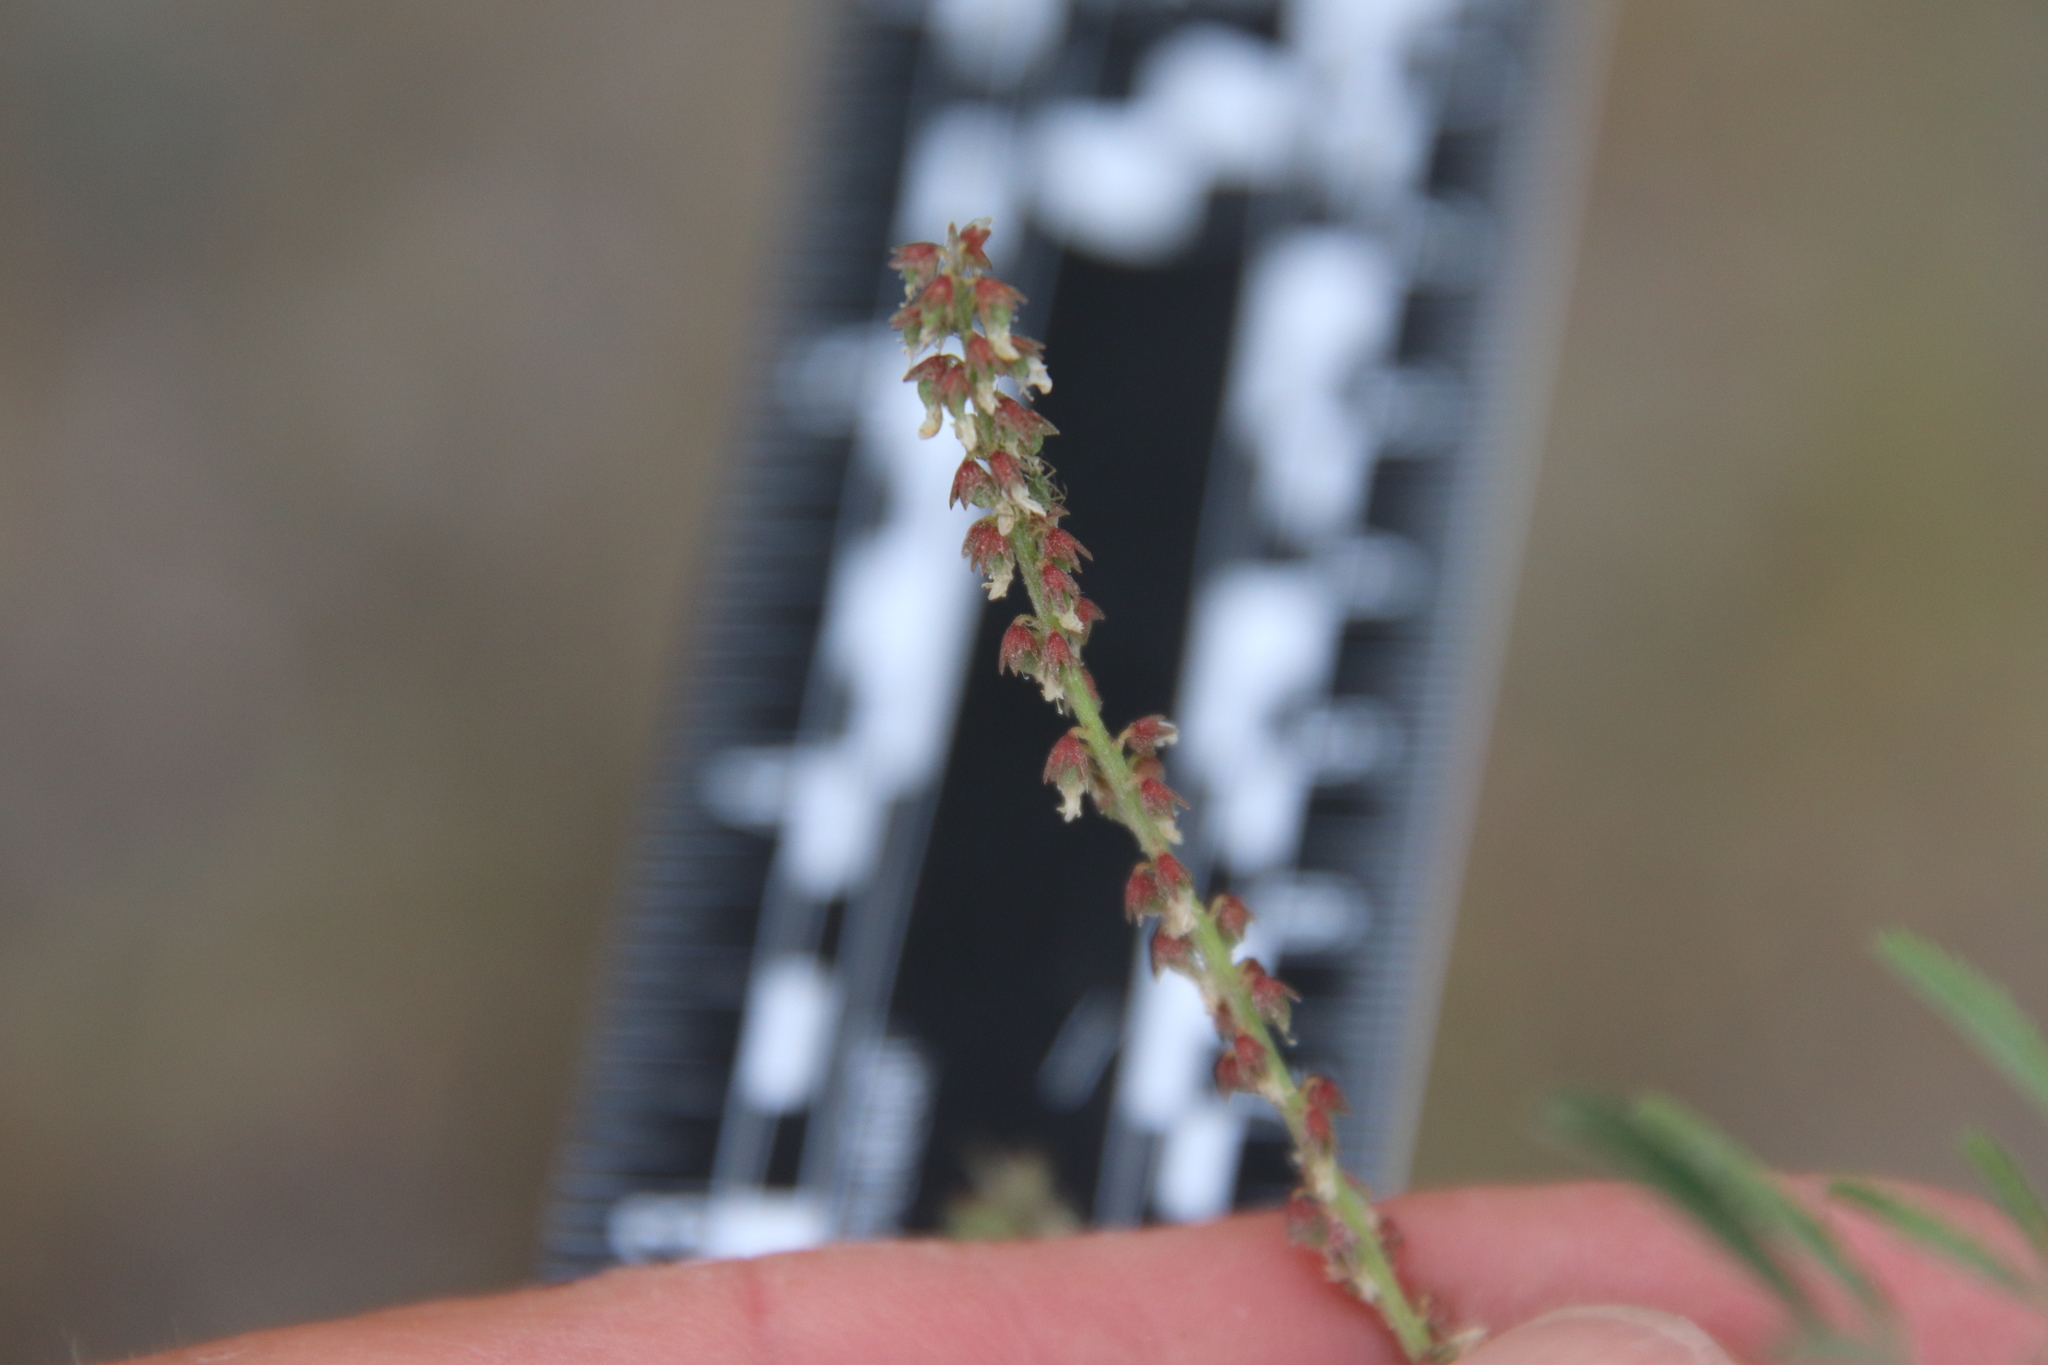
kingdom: Plantae
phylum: Tracheophyta
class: Magnoliopsida
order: Fabales
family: Fabaceae
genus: Melilotus
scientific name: Melilotus indicus
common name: Small melilot
